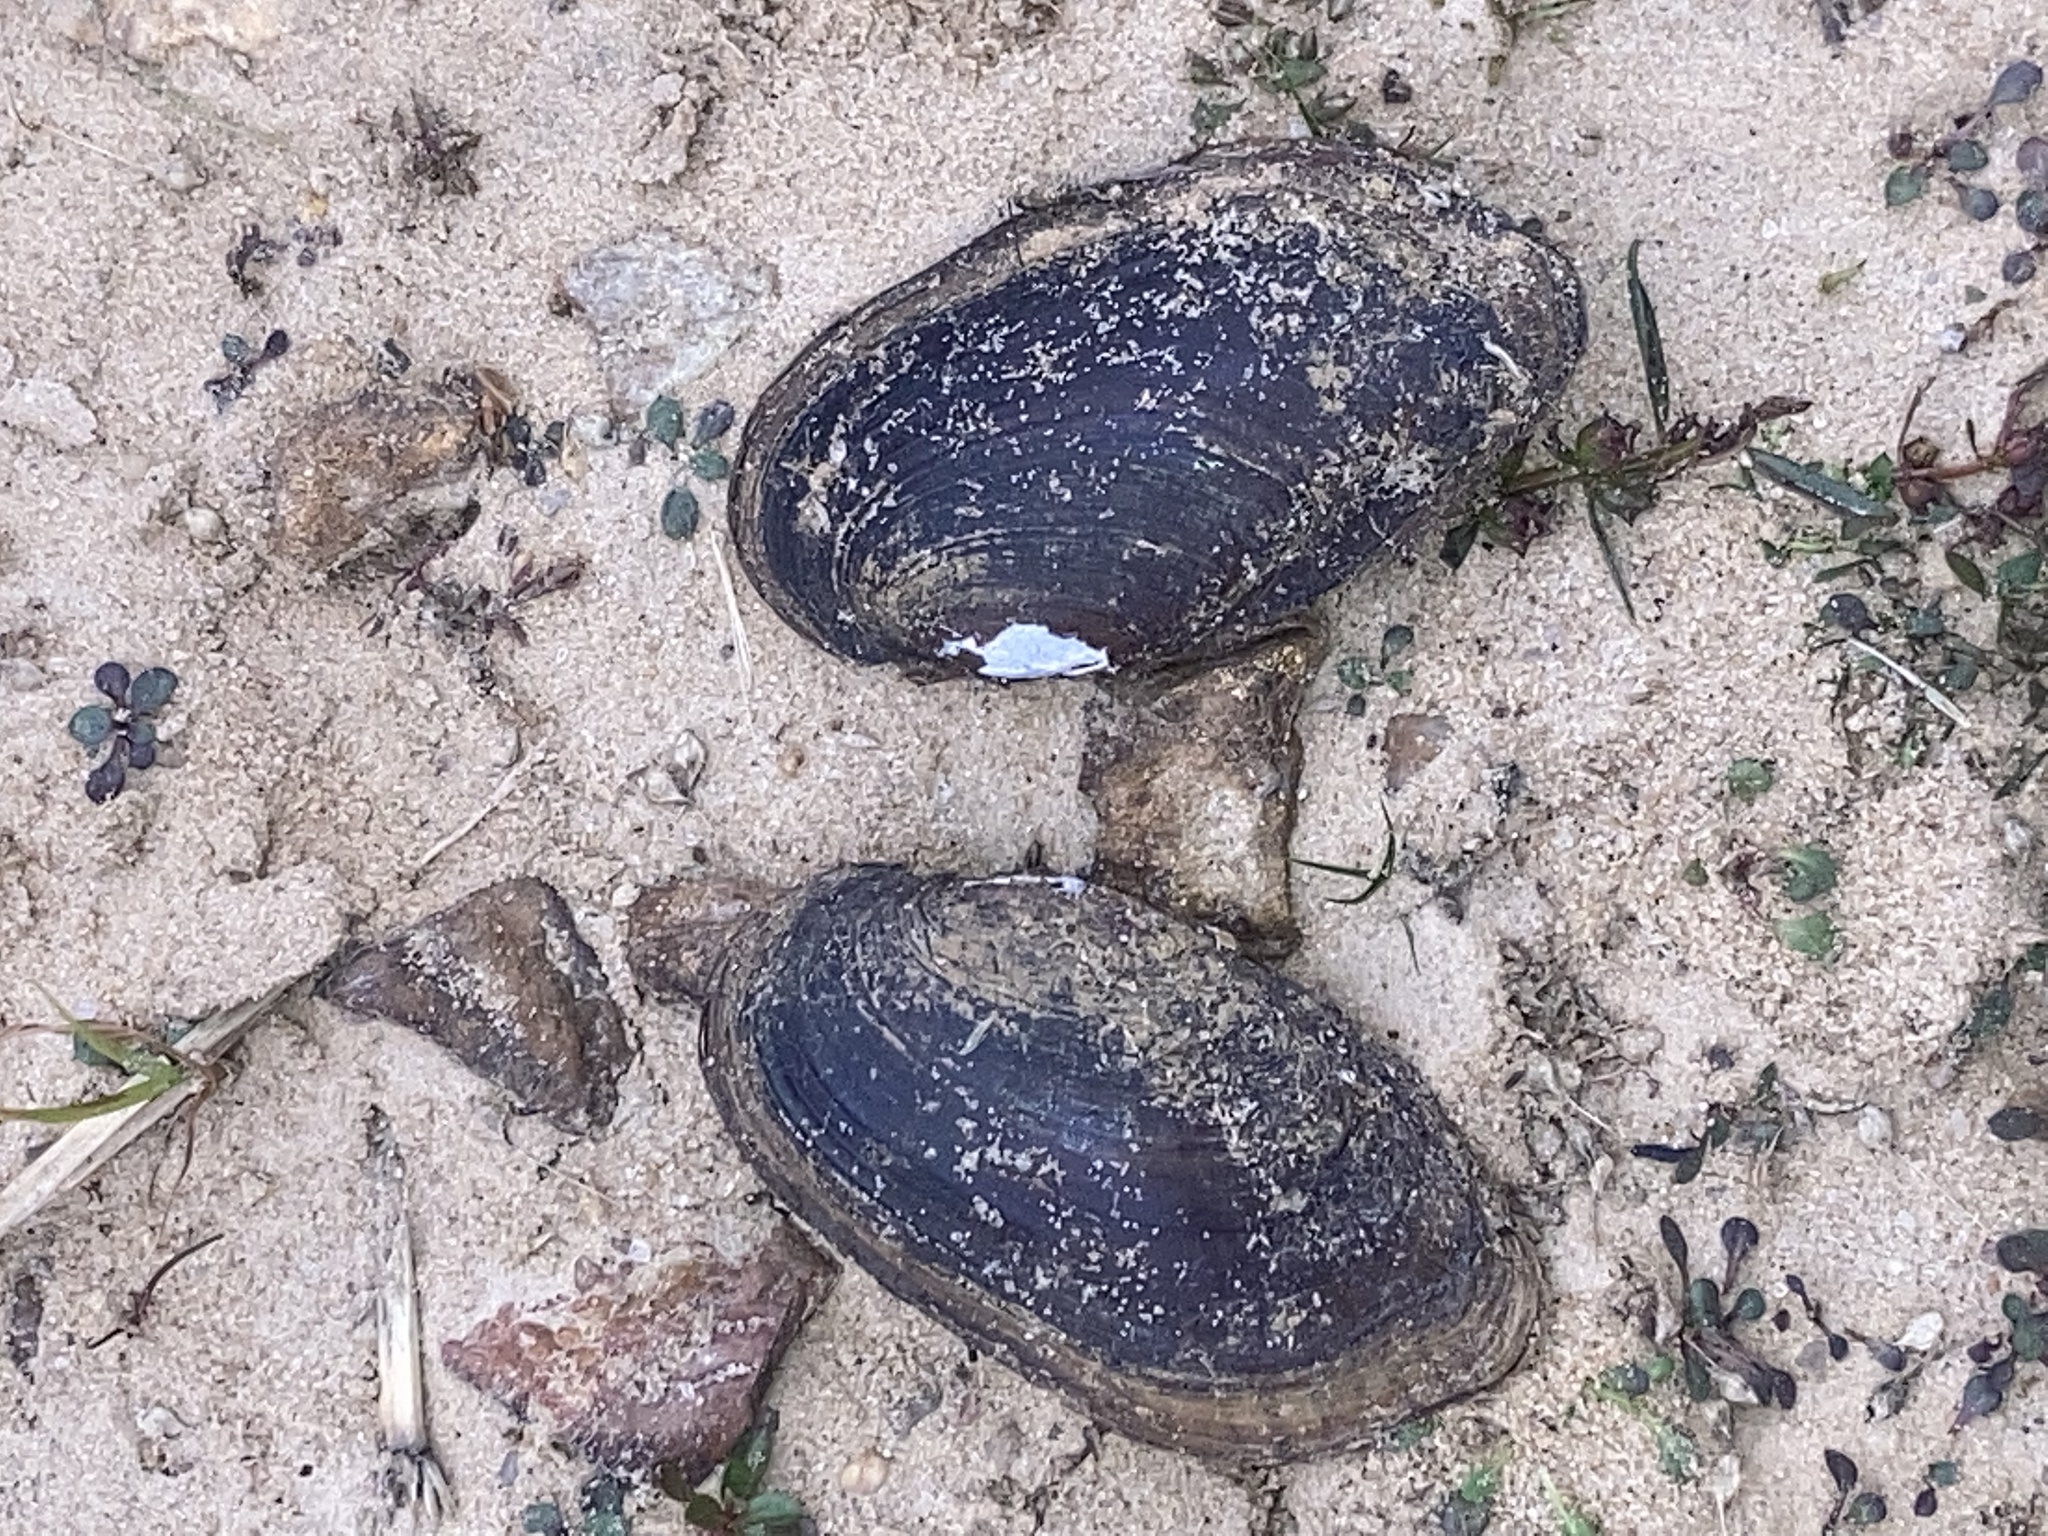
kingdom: Animalia
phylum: Mollusca
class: Bivalvia
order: Unionida
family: Unionidae
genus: Sagittunio
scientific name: Sagittunio subrostratus
